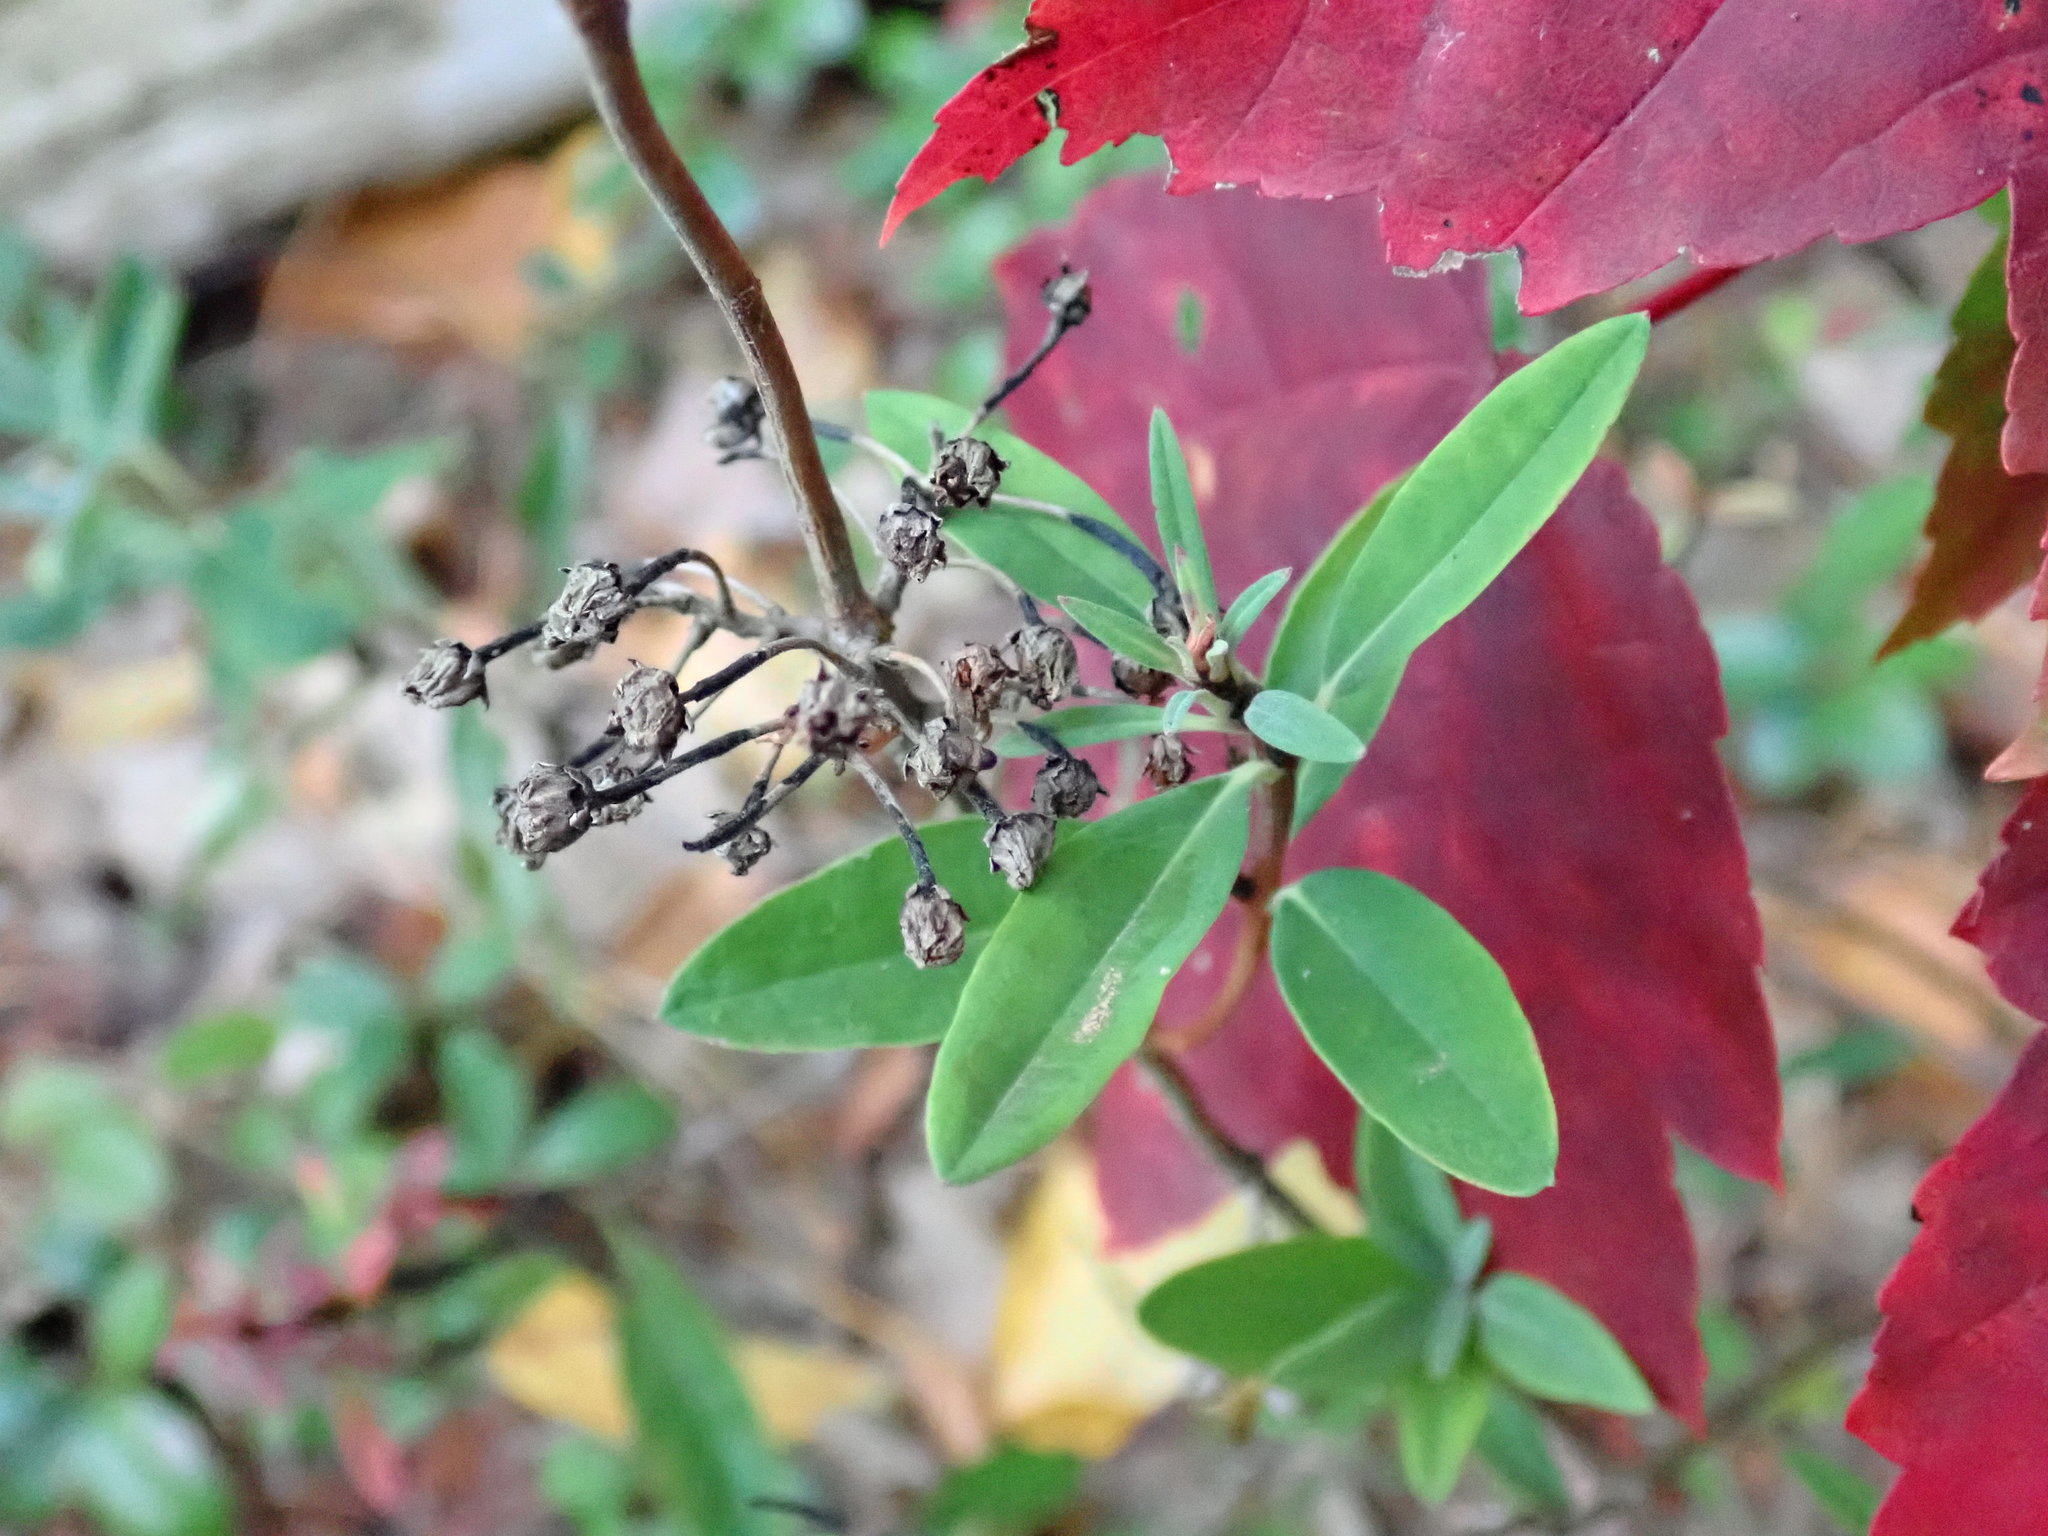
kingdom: Plantae
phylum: Tracheophyta
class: Magnoliopsida
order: Ericales
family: Ericaceae
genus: Kalmia
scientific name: Kalmia angustifolia
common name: Sheep-laurel
